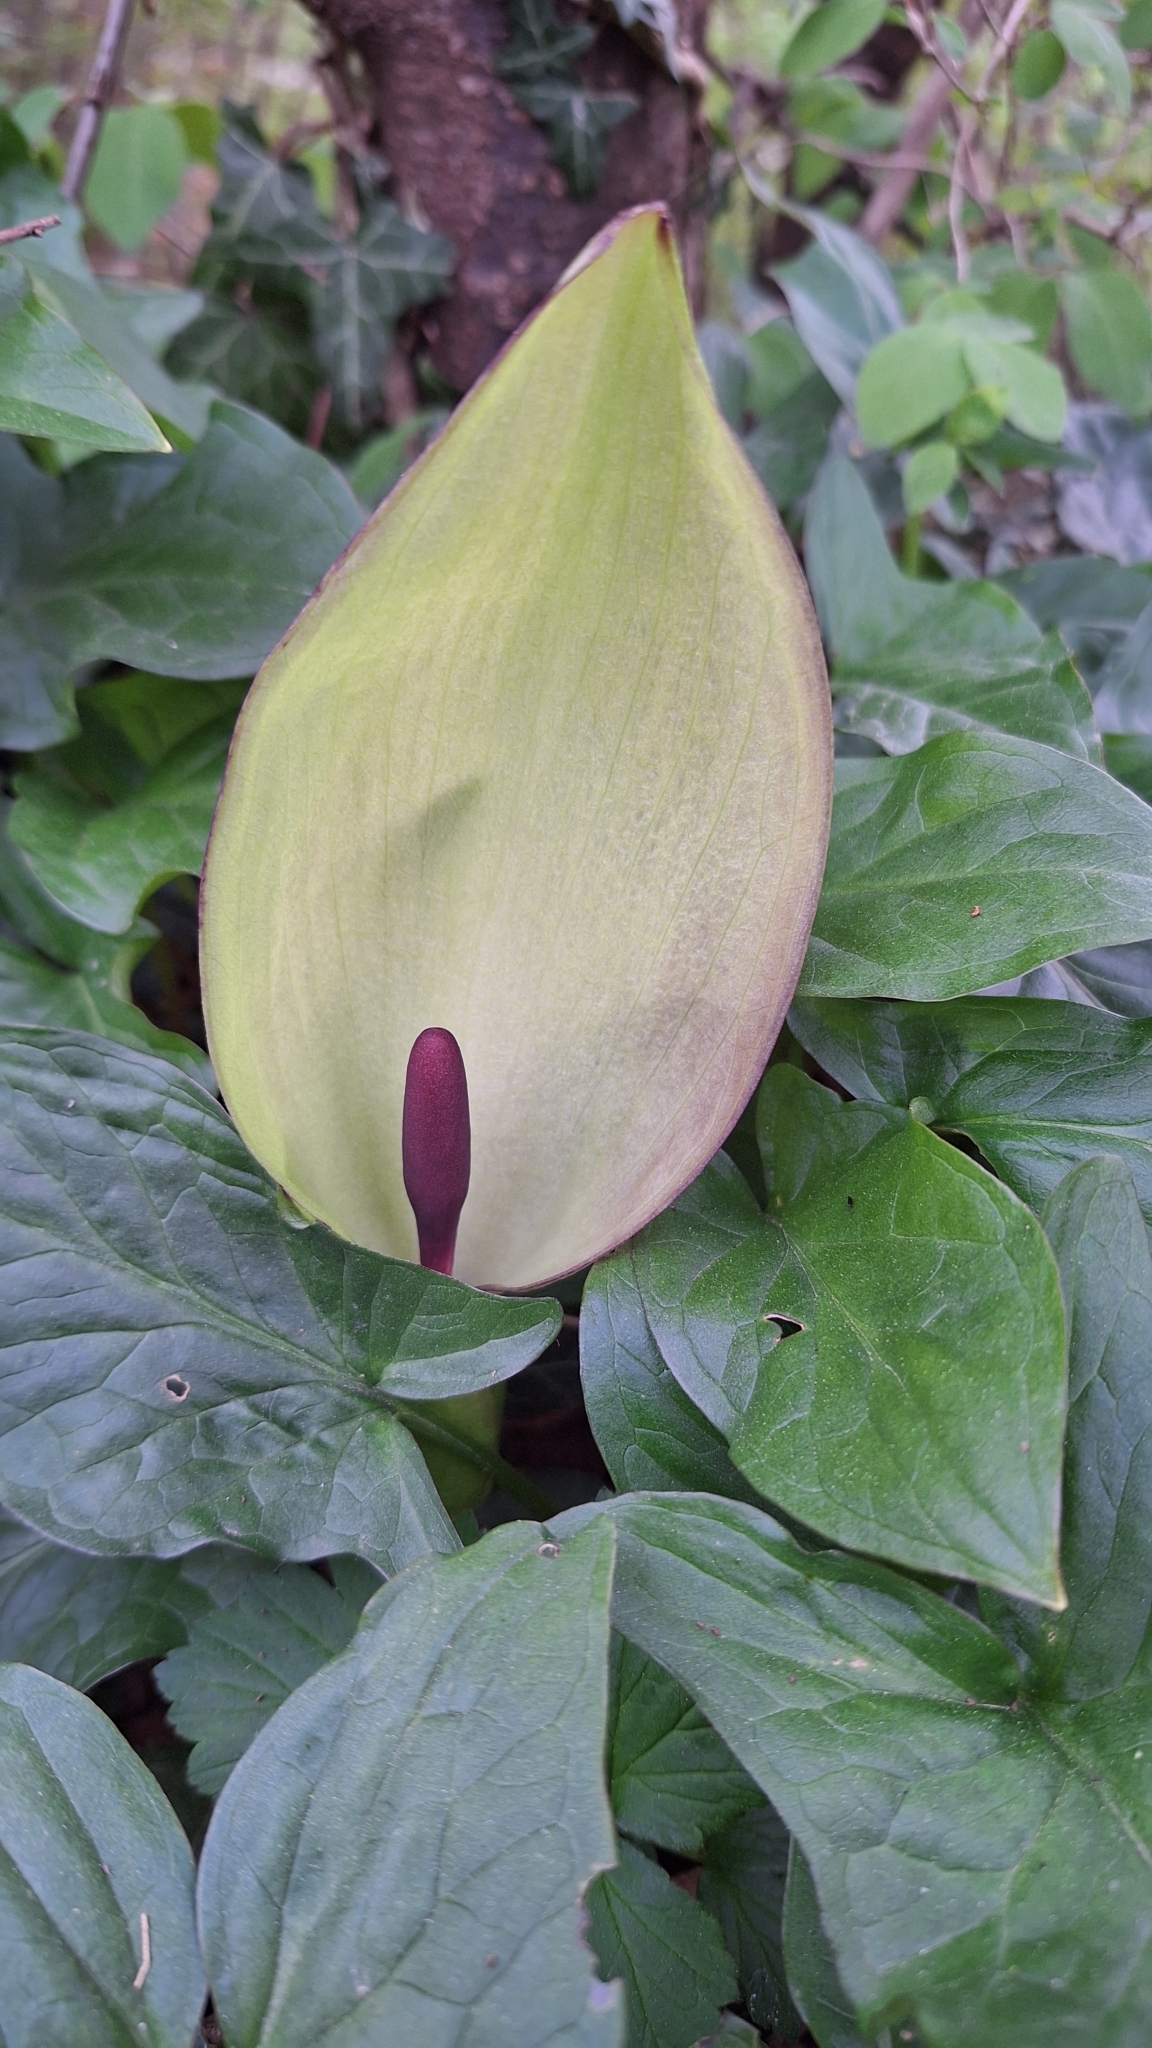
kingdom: Plantae
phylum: Tracheophyta
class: Liliopsida
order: Alismatales
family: Araceae
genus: Arum
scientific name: Arum maculatum
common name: Lords-and-ladies
